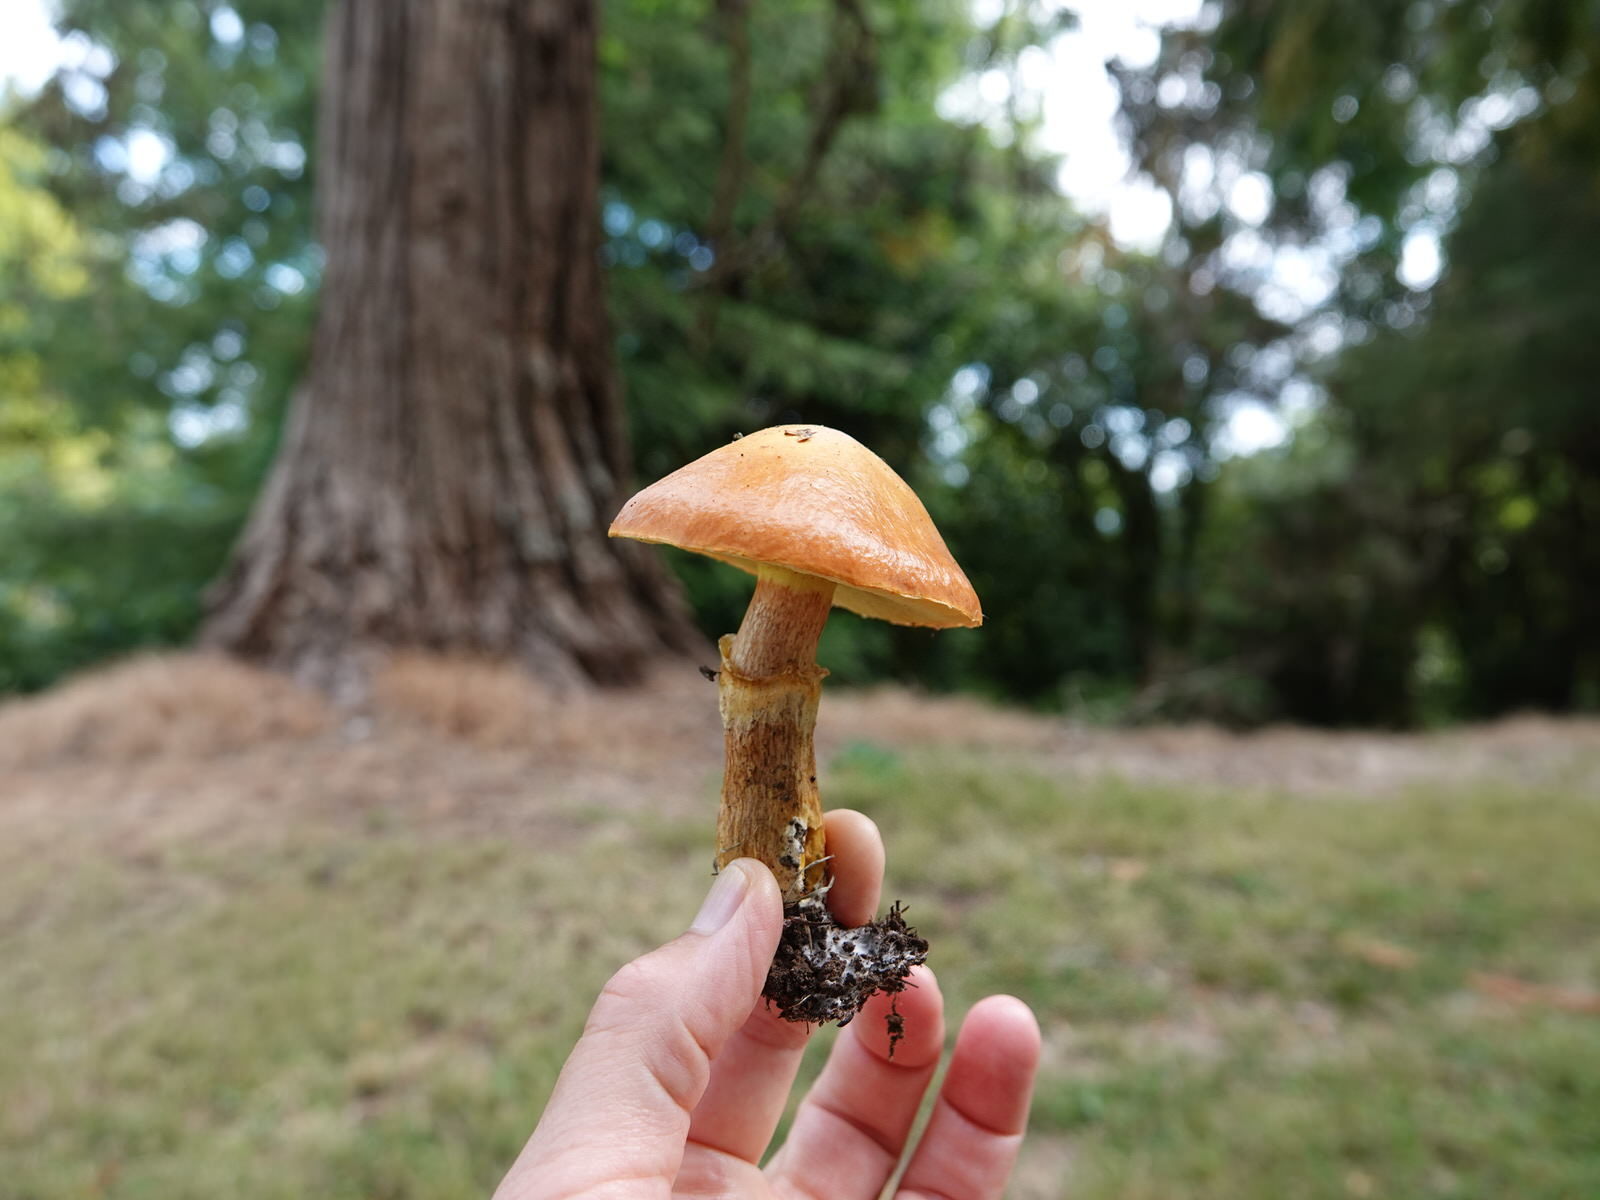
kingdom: Fungi
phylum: Basidiomycota
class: Agaricomycetes
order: Boletales
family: Suillaceae
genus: Suillus
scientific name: Suillus grevillei
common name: Larch bolete
